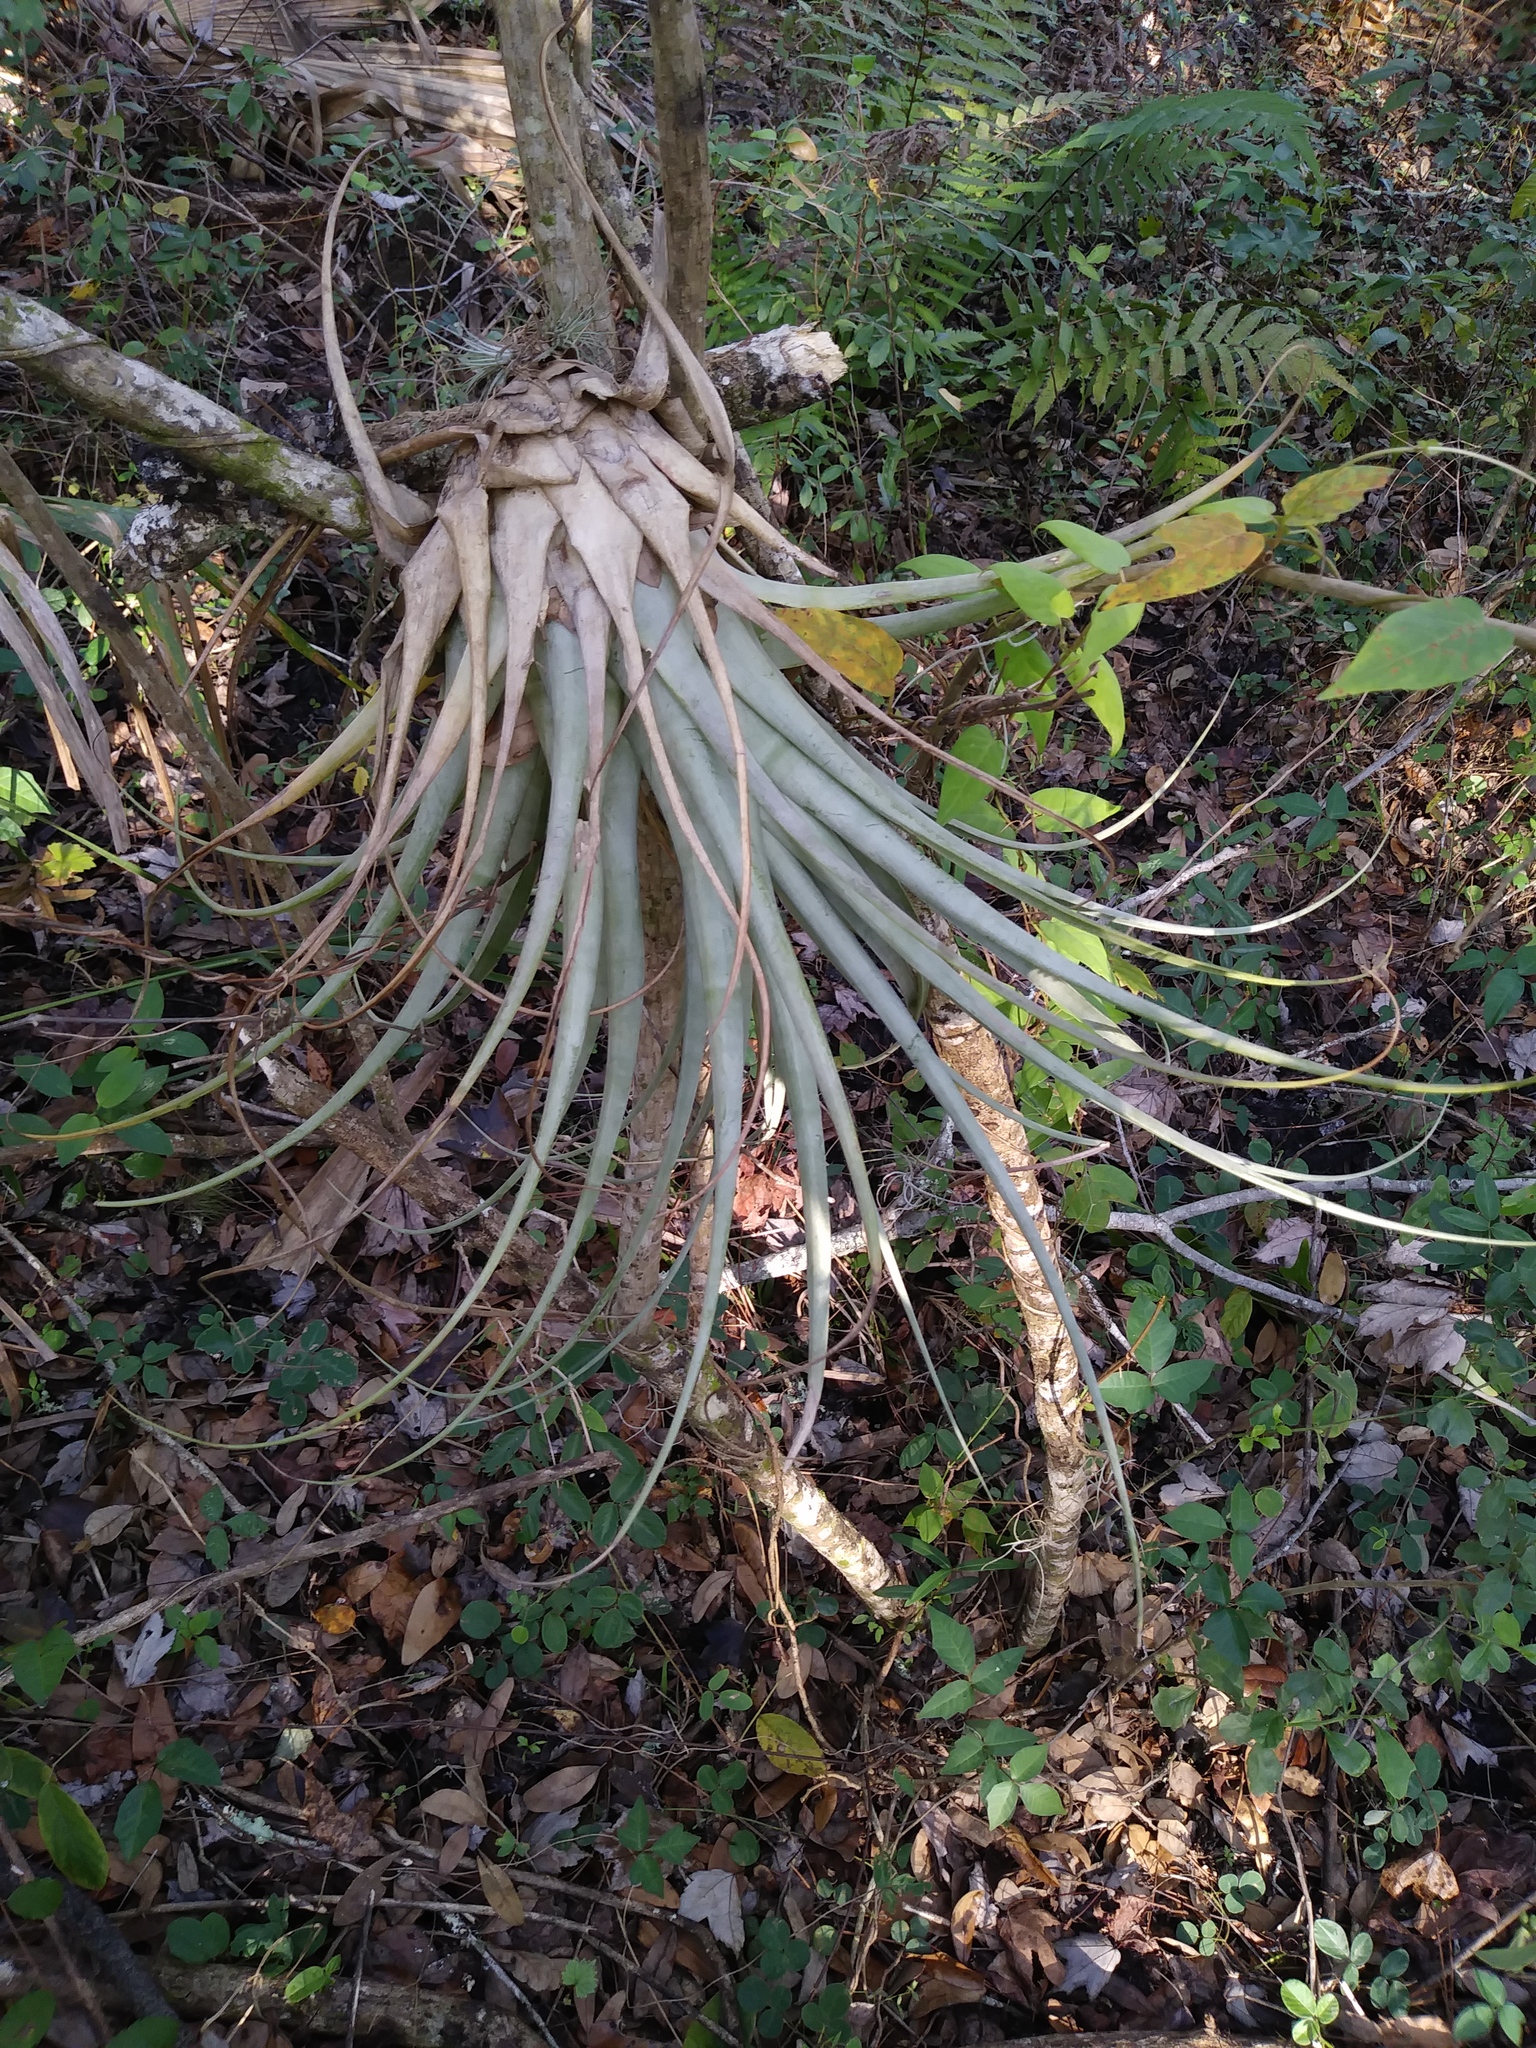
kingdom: Plantae
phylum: Tracheophyta
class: Liliopsida
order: Poales
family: Bromeliaceae
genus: Tillandsia
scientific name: Tillandsia utriculata
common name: Wild pine
